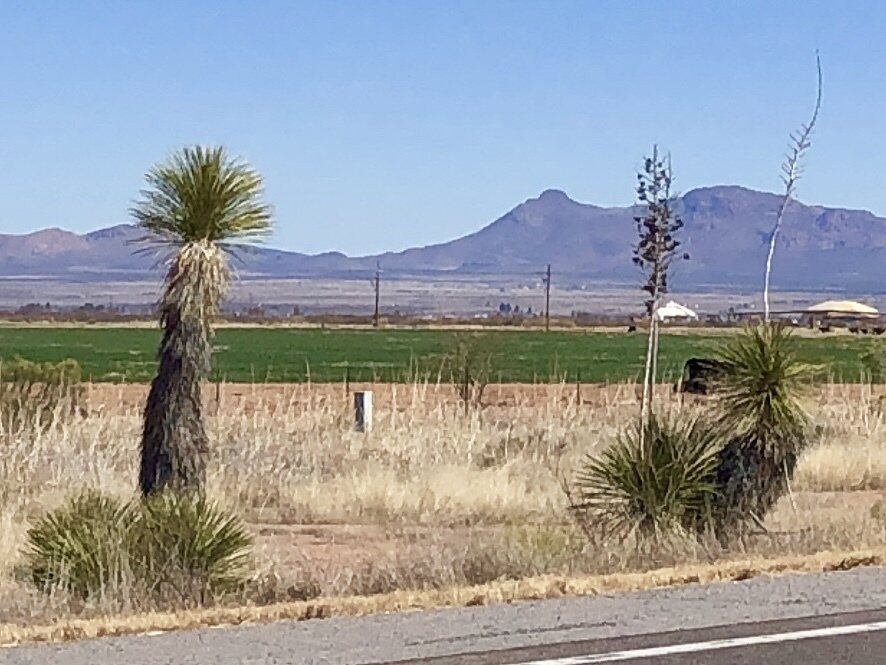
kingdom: Plantae
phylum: Tracheophyta
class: Liliopsida
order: Asparagales
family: Asparagaceae
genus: Yucca
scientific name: Yucca elata
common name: Palmella
